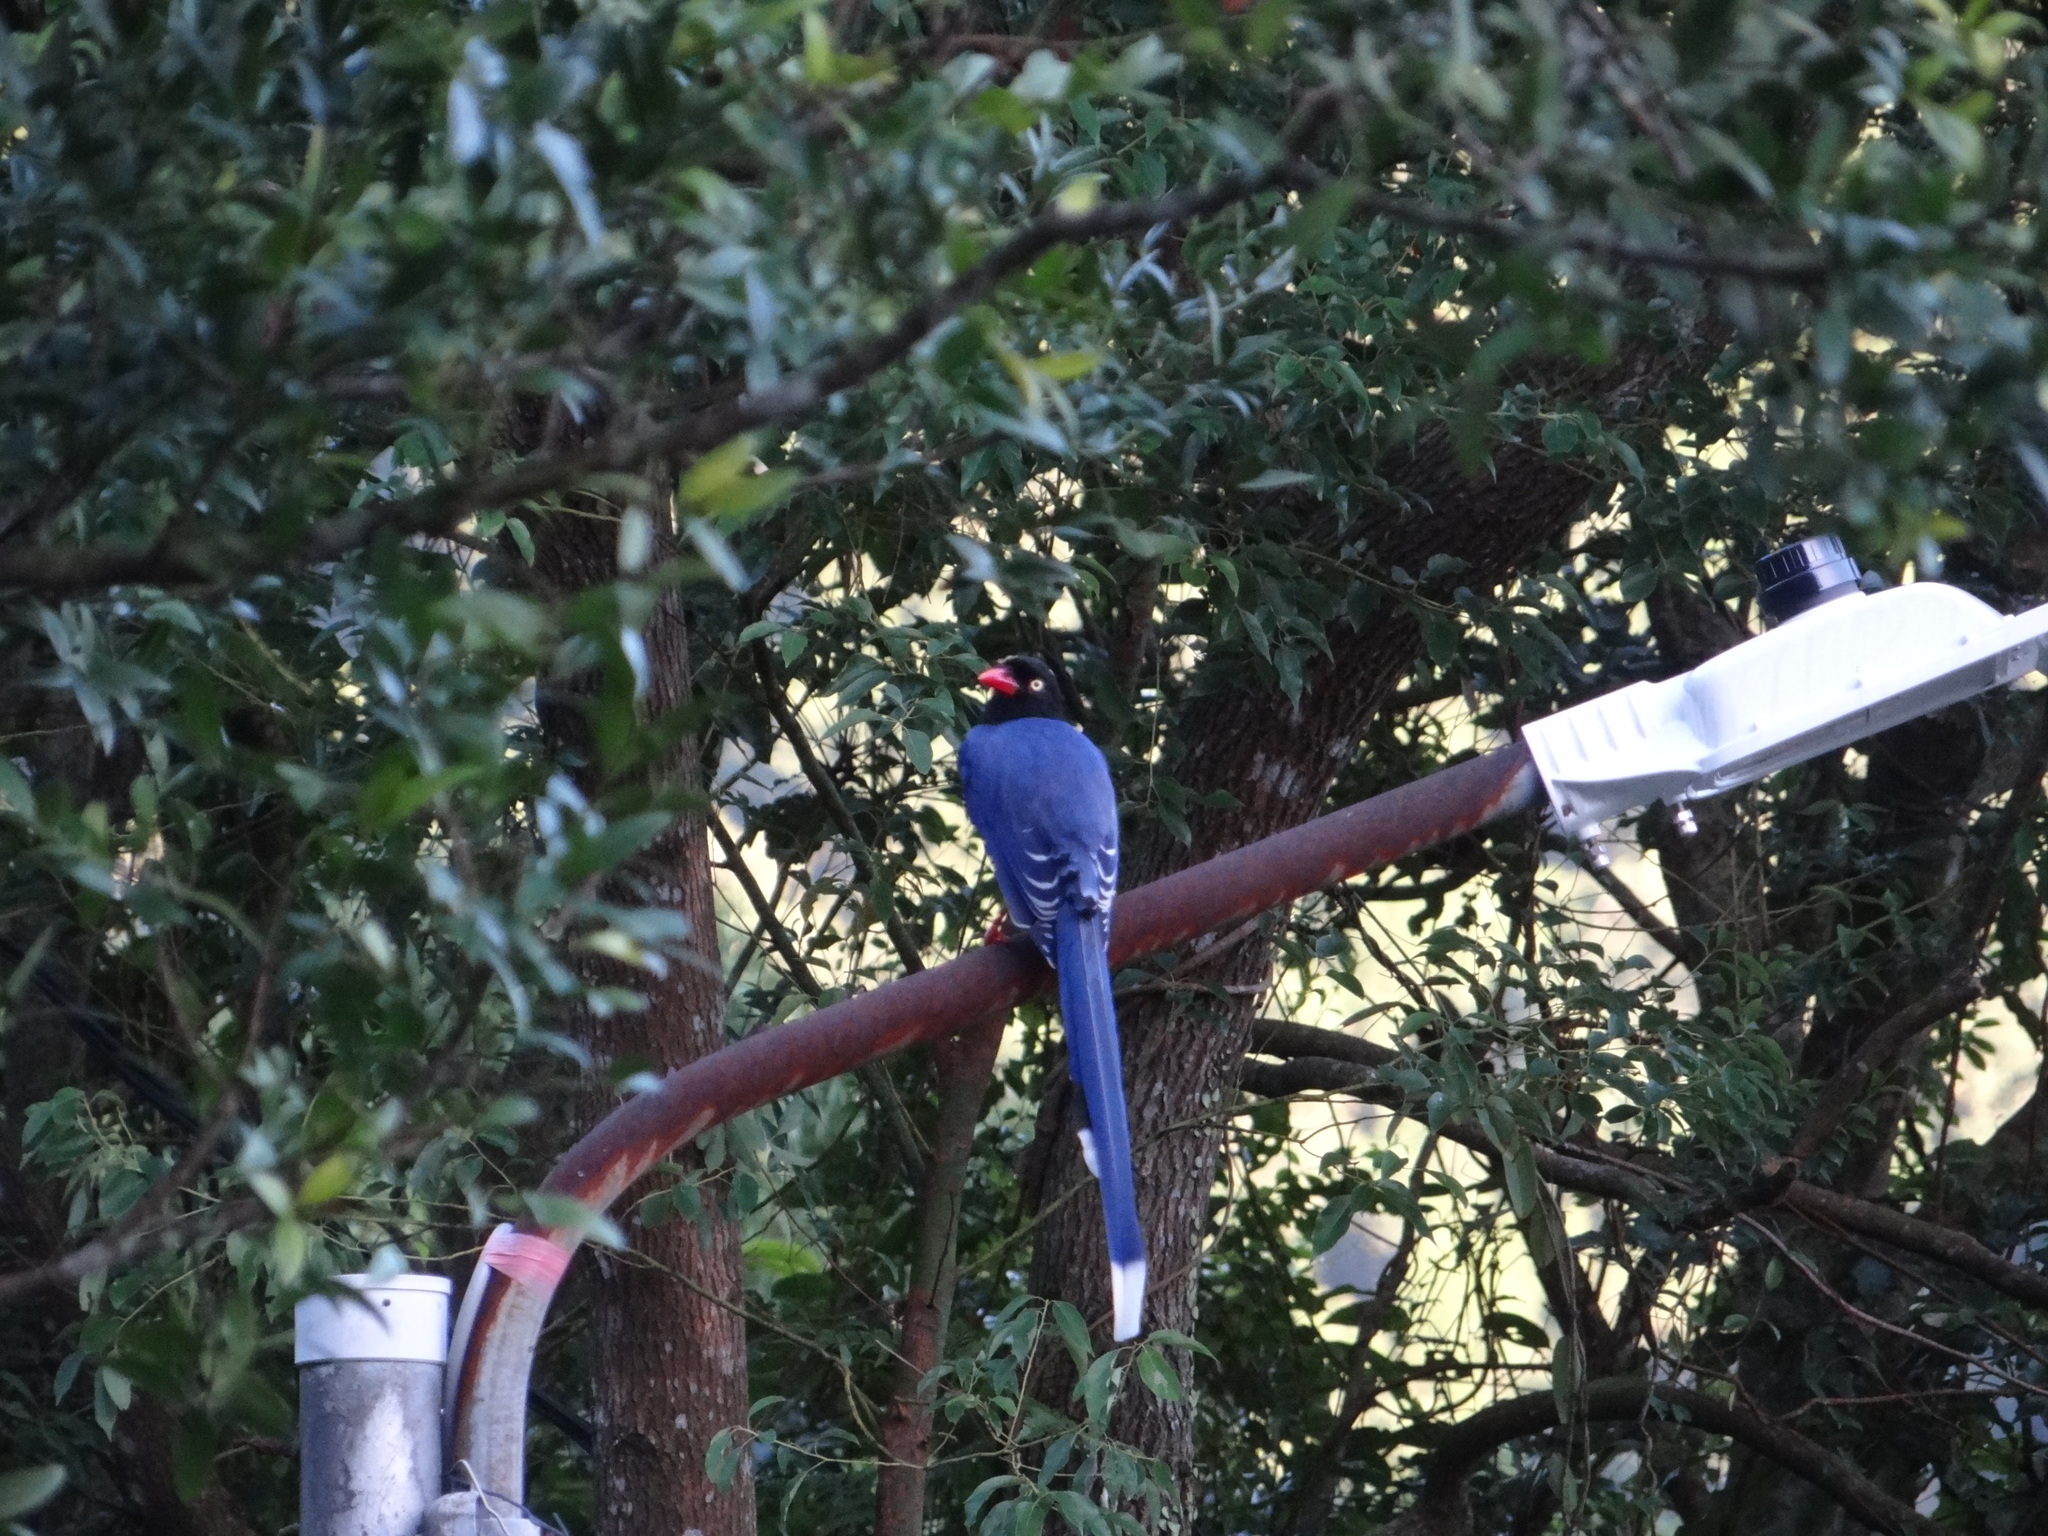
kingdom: Animalia
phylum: Chordata
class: Aves
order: Passeriformes
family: Corvidae
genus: Urocissa
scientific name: Urocissa caerulea
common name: Taiwan blue magpie
